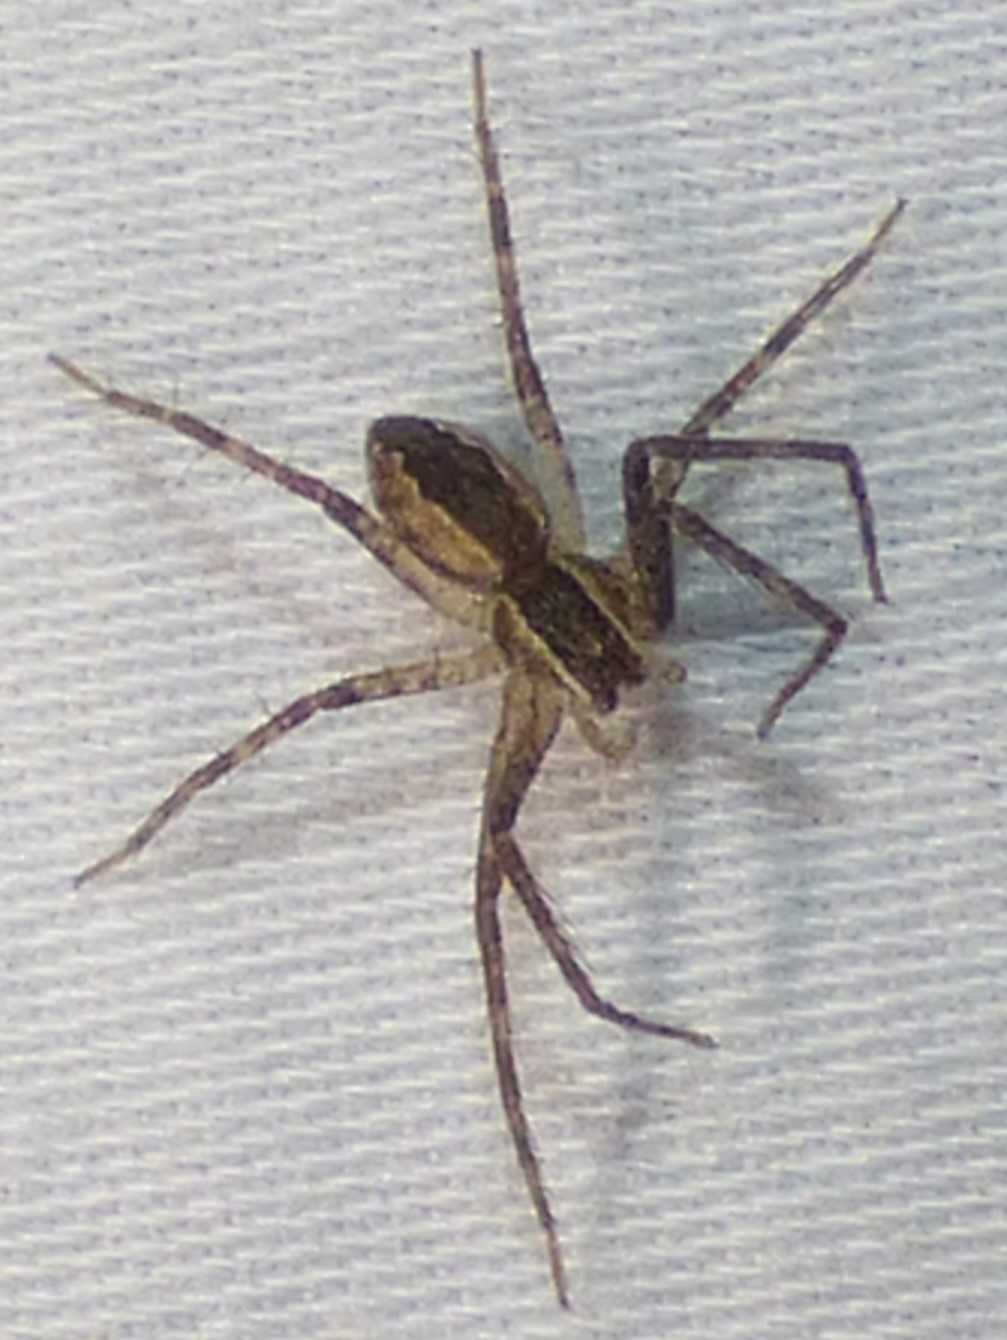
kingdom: Animalia
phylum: Arthropoda
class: Arachnida
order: Araneae
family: Pisauridae
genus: Pisaurina
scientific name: Pisaurina mira
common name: American nursery web spider
